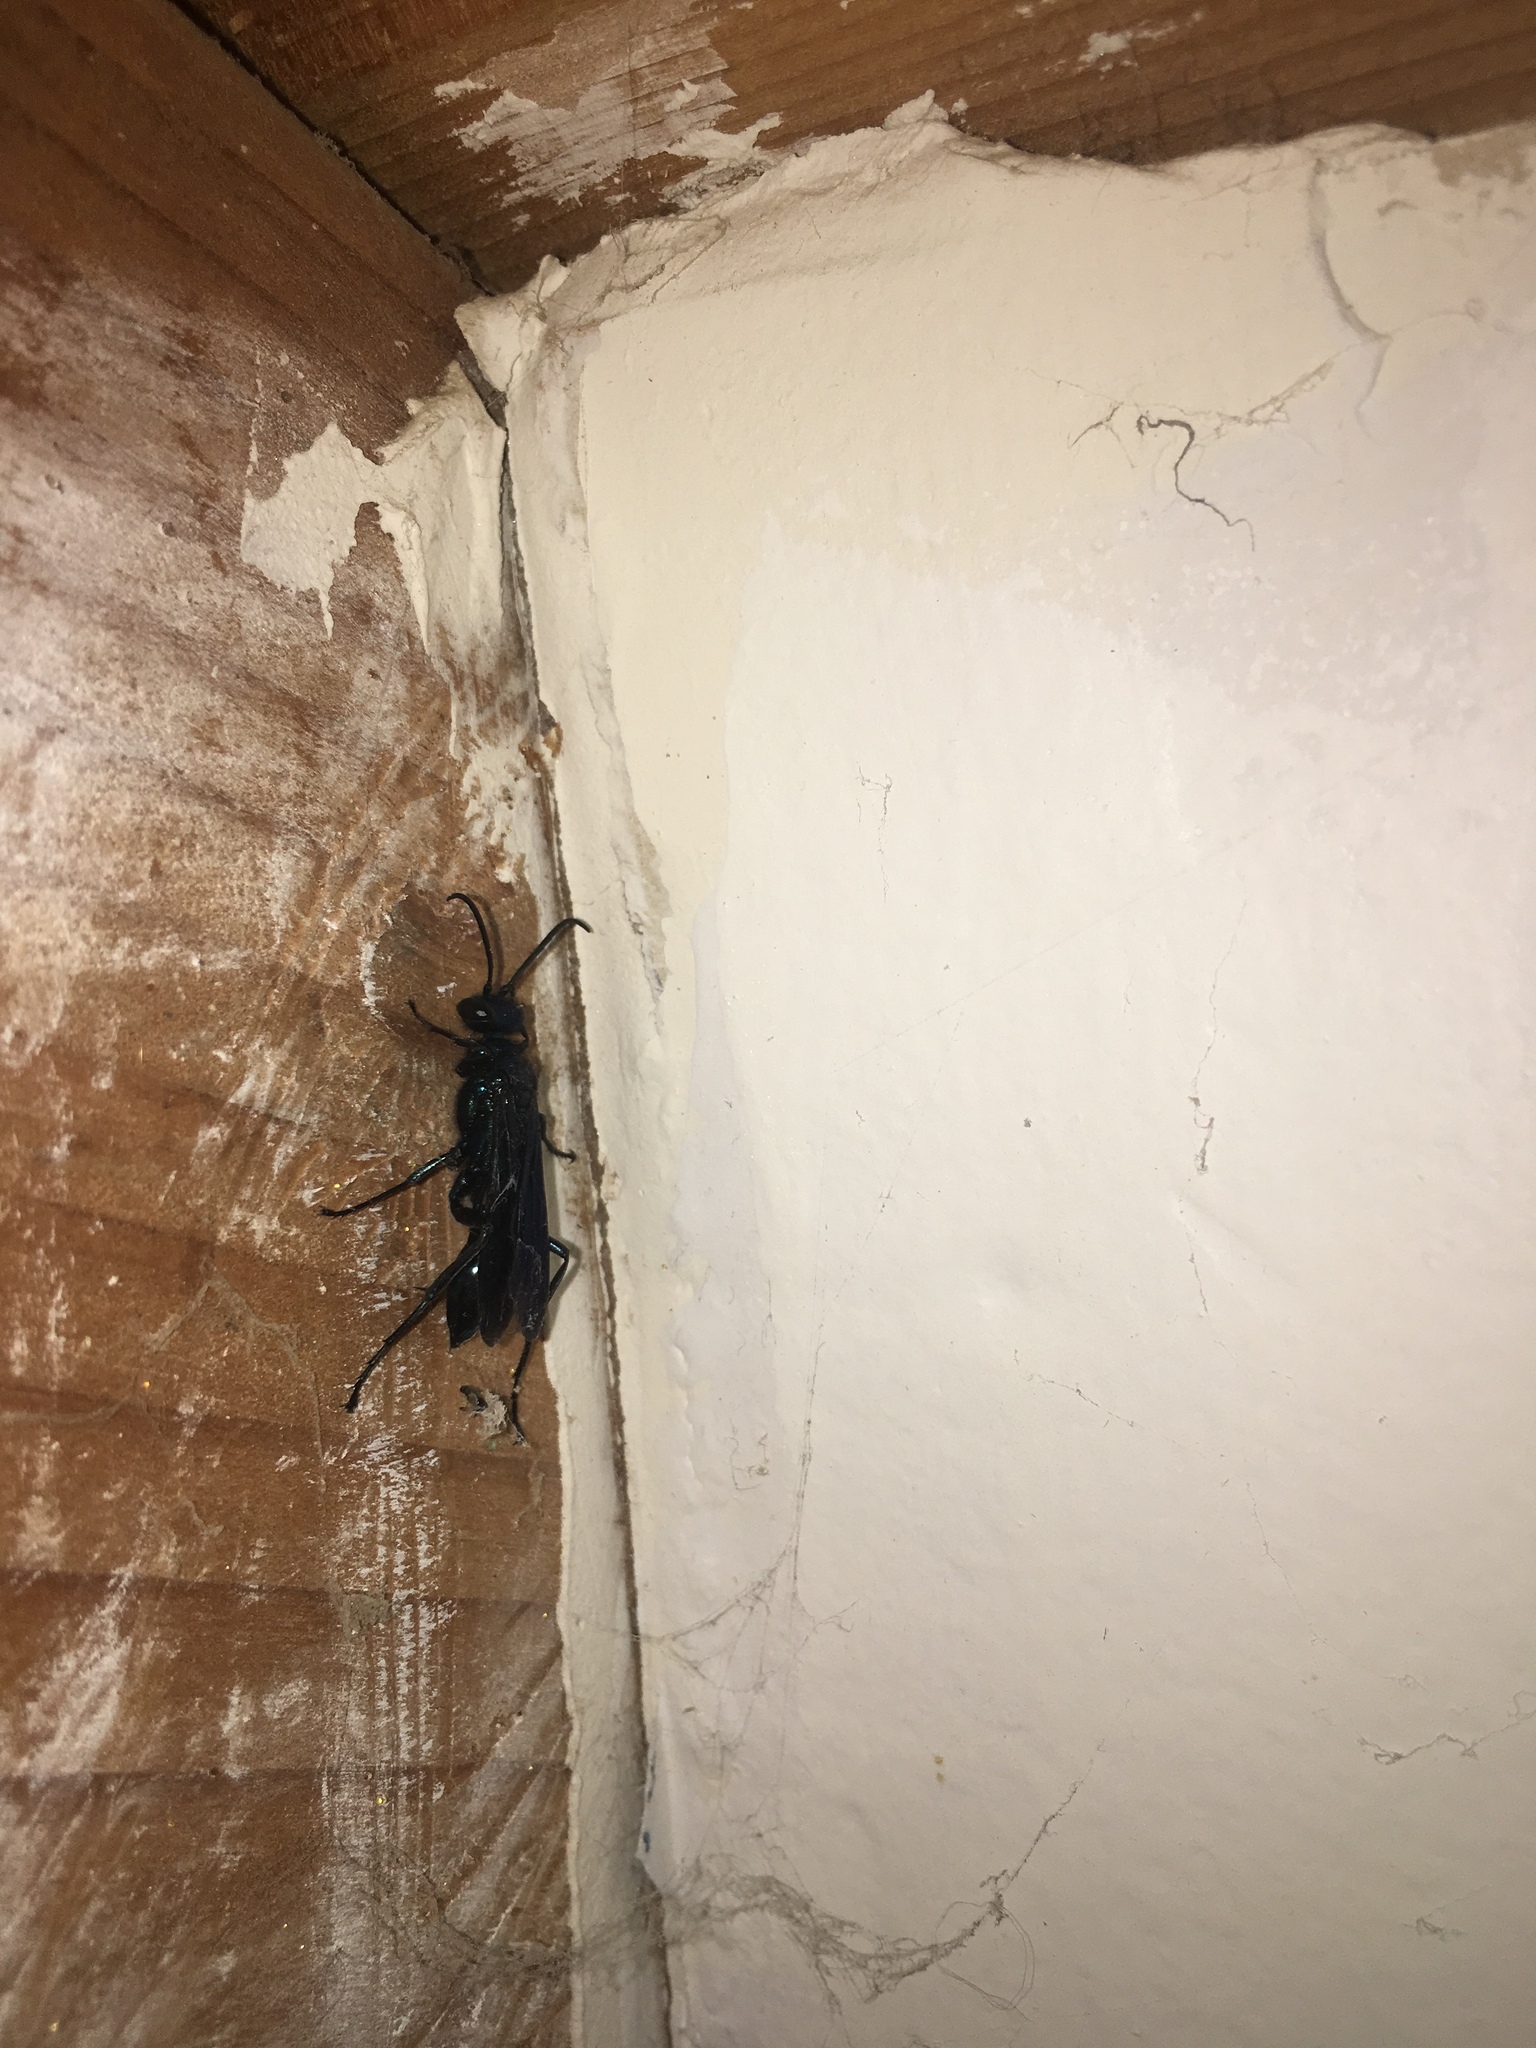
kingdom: Animalia
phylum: Arthropoda
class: Insecta
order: Hymenoptera
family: Sphecidae
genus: Chalybion
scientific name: Chalybion californicum
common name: Mud dauber
